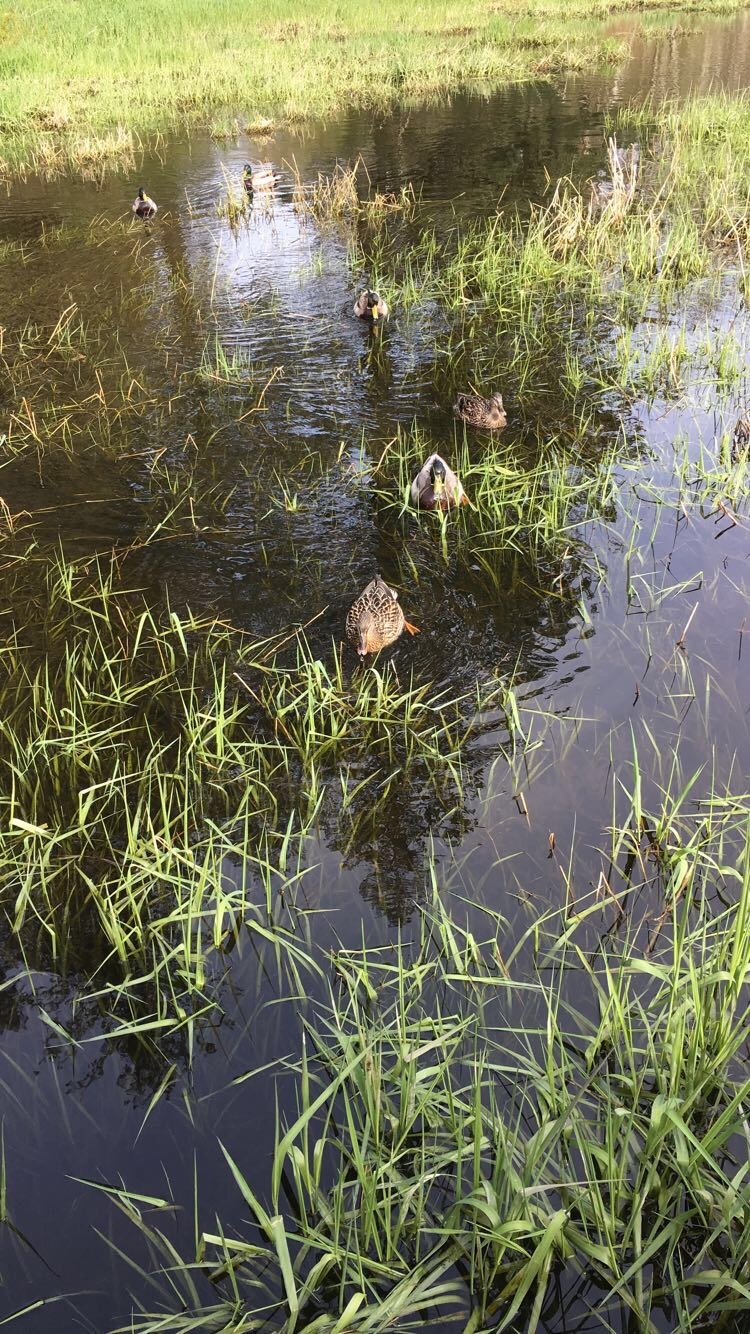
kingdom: Animalia
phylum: Chordata
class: Aves
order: Anseriformes
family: Anatidae
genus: Anas
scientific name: Anas platyrhynchos
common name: Mallard
